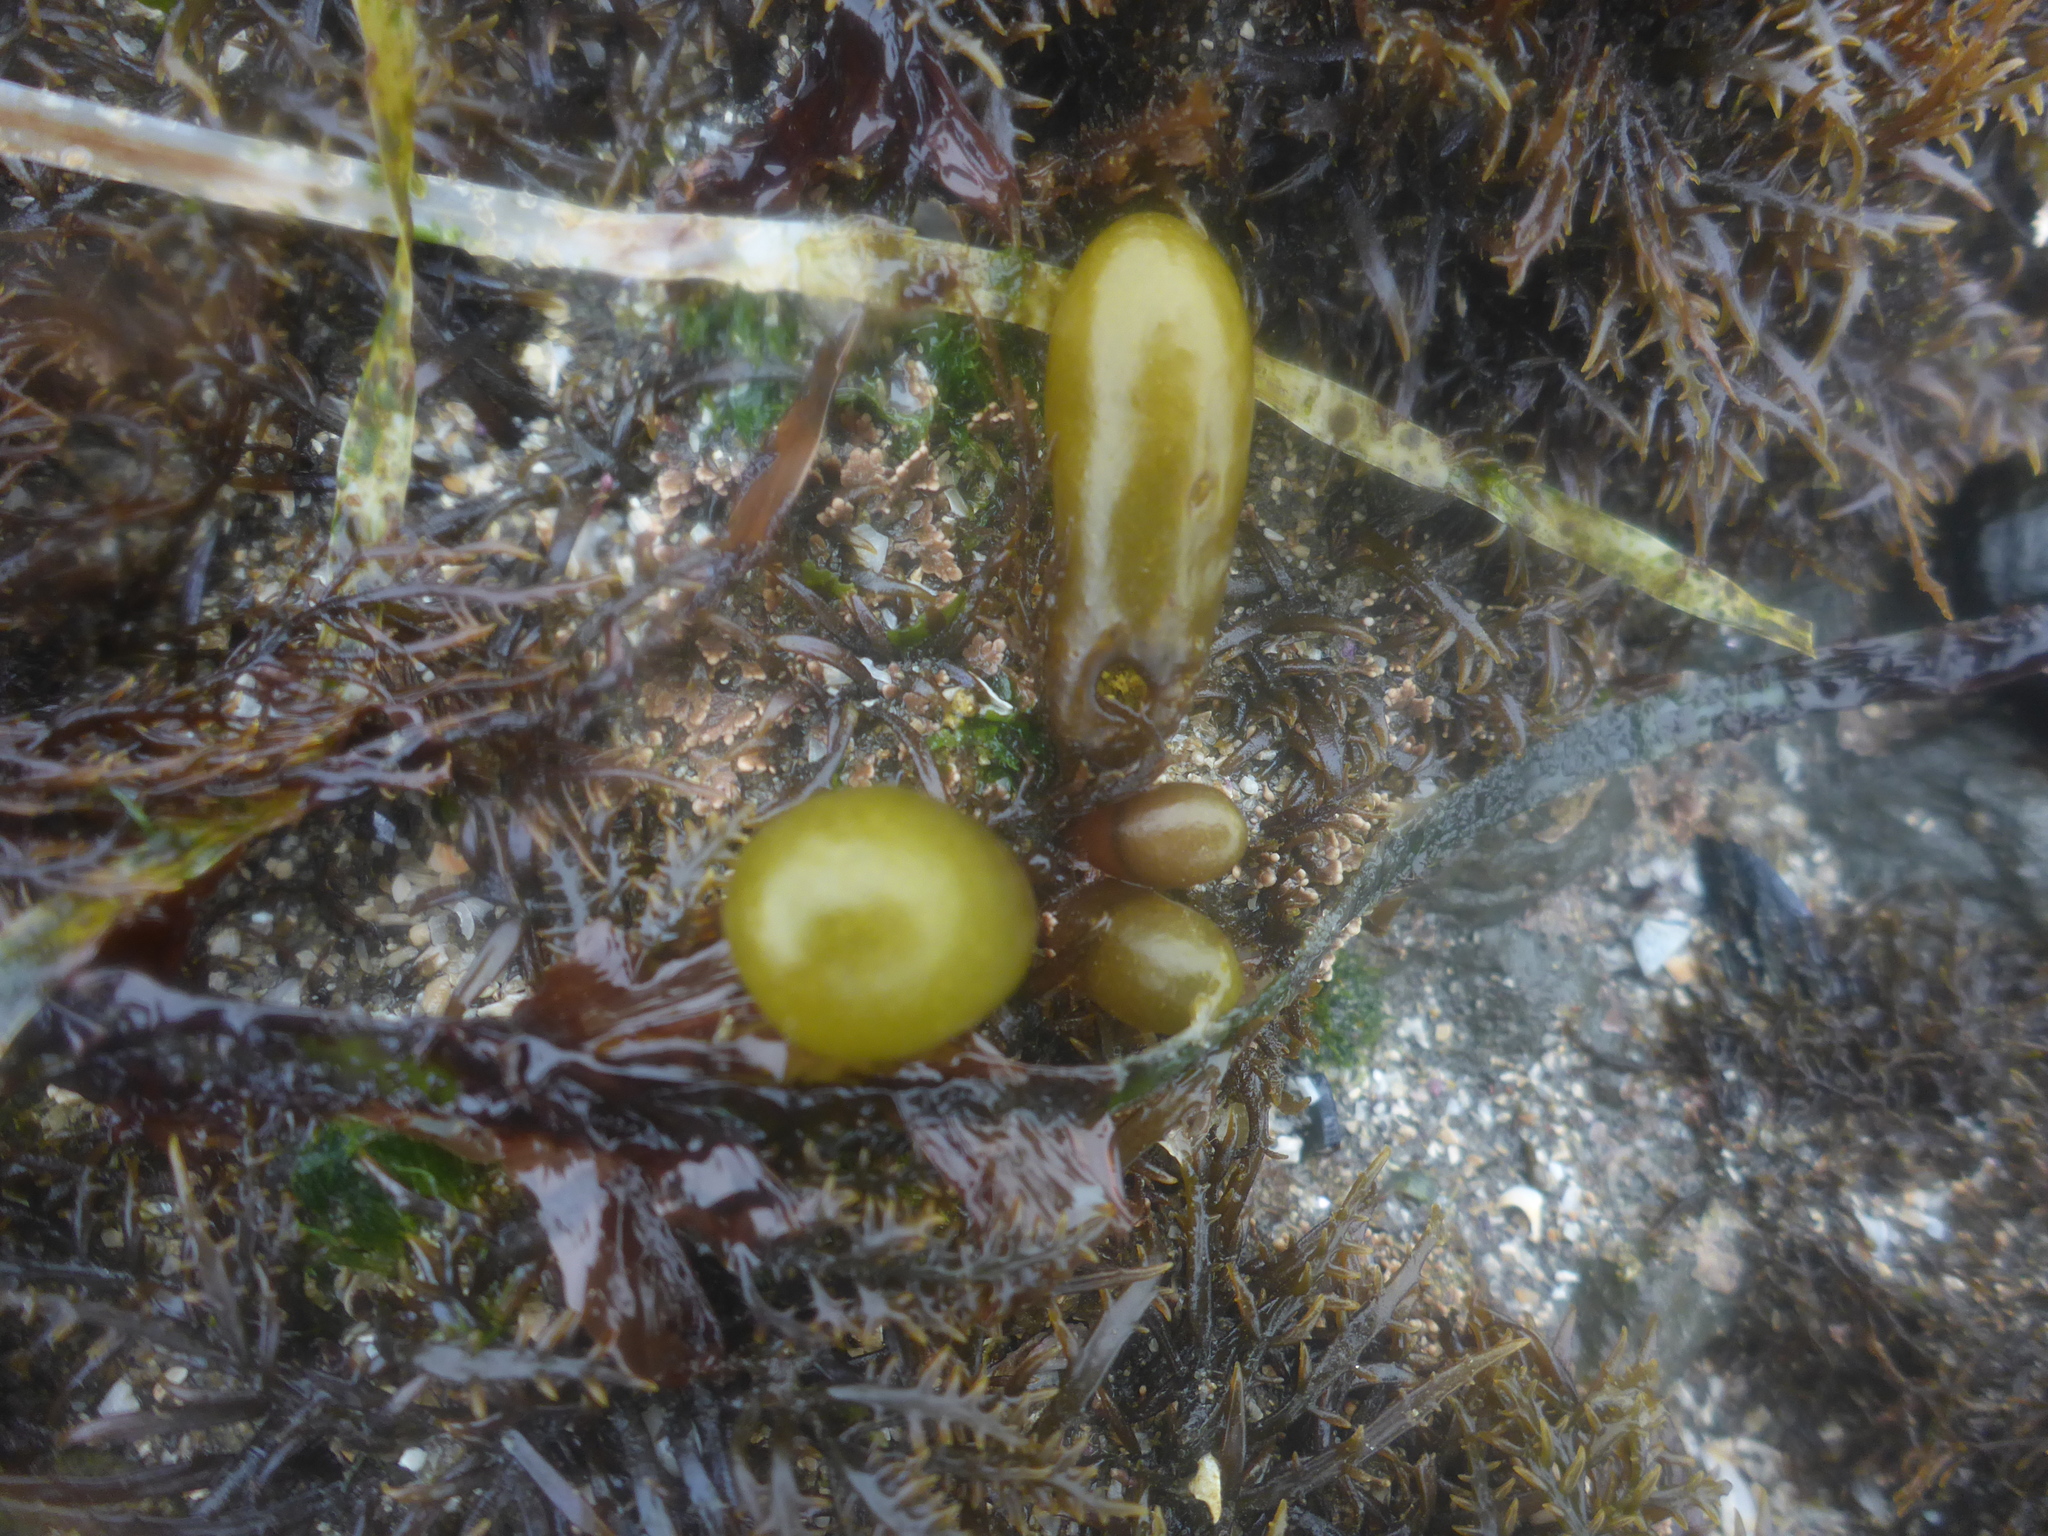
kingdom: Plantae
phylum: Rhodophyta
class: Florideophyceae
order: Palmariales
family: Palmariaceae
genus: Halosaccion
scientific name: Halosaccion glandiforme
